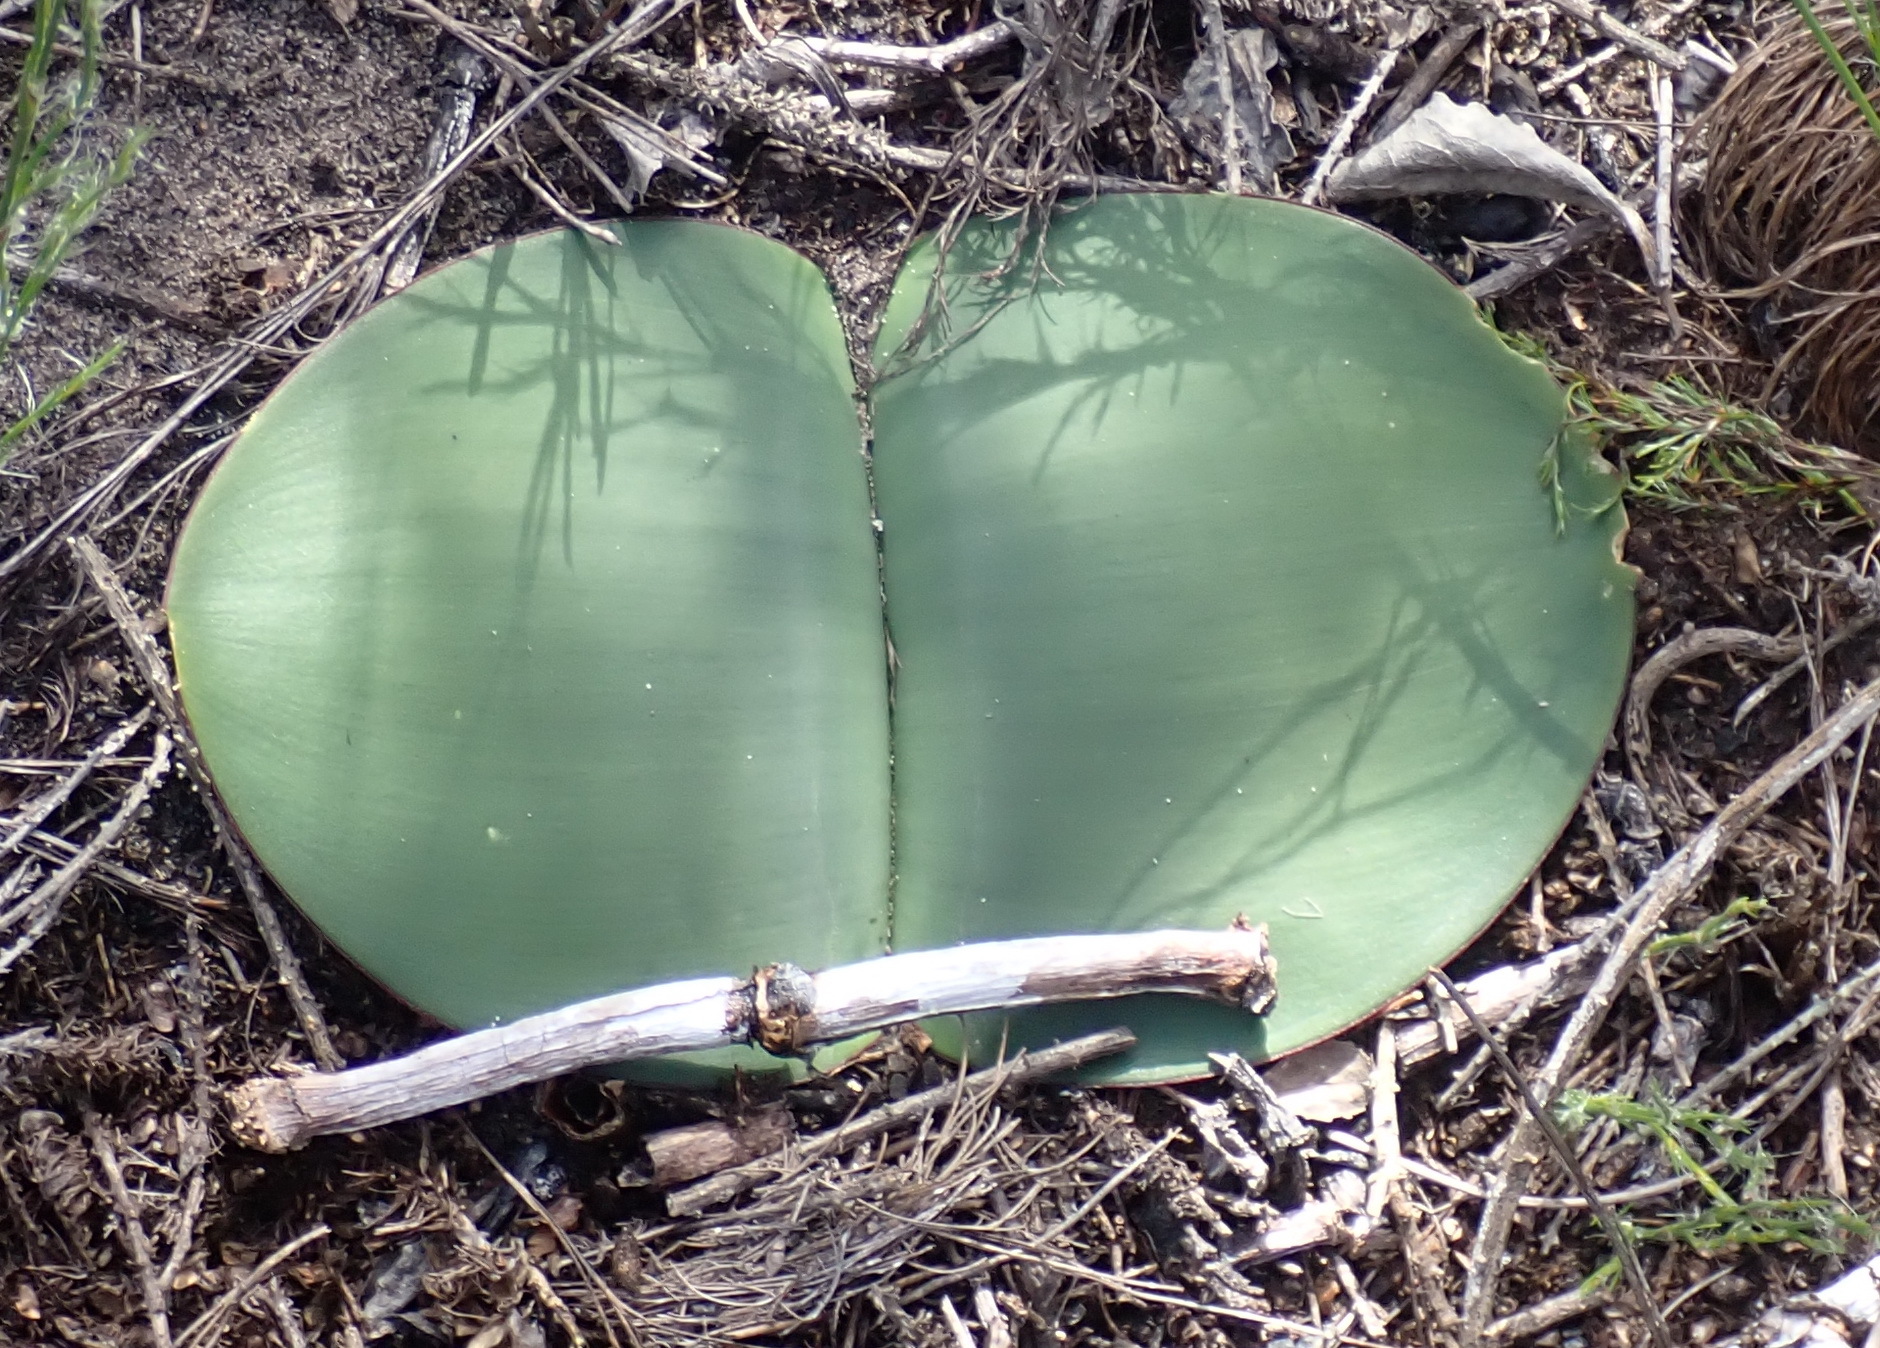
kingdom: Plantae
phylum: Tracheophyta
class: Liliopsida
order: Asparagales
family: Amaryllidaceae
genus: Haemanthus
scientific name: Haemanthus sanguineus
